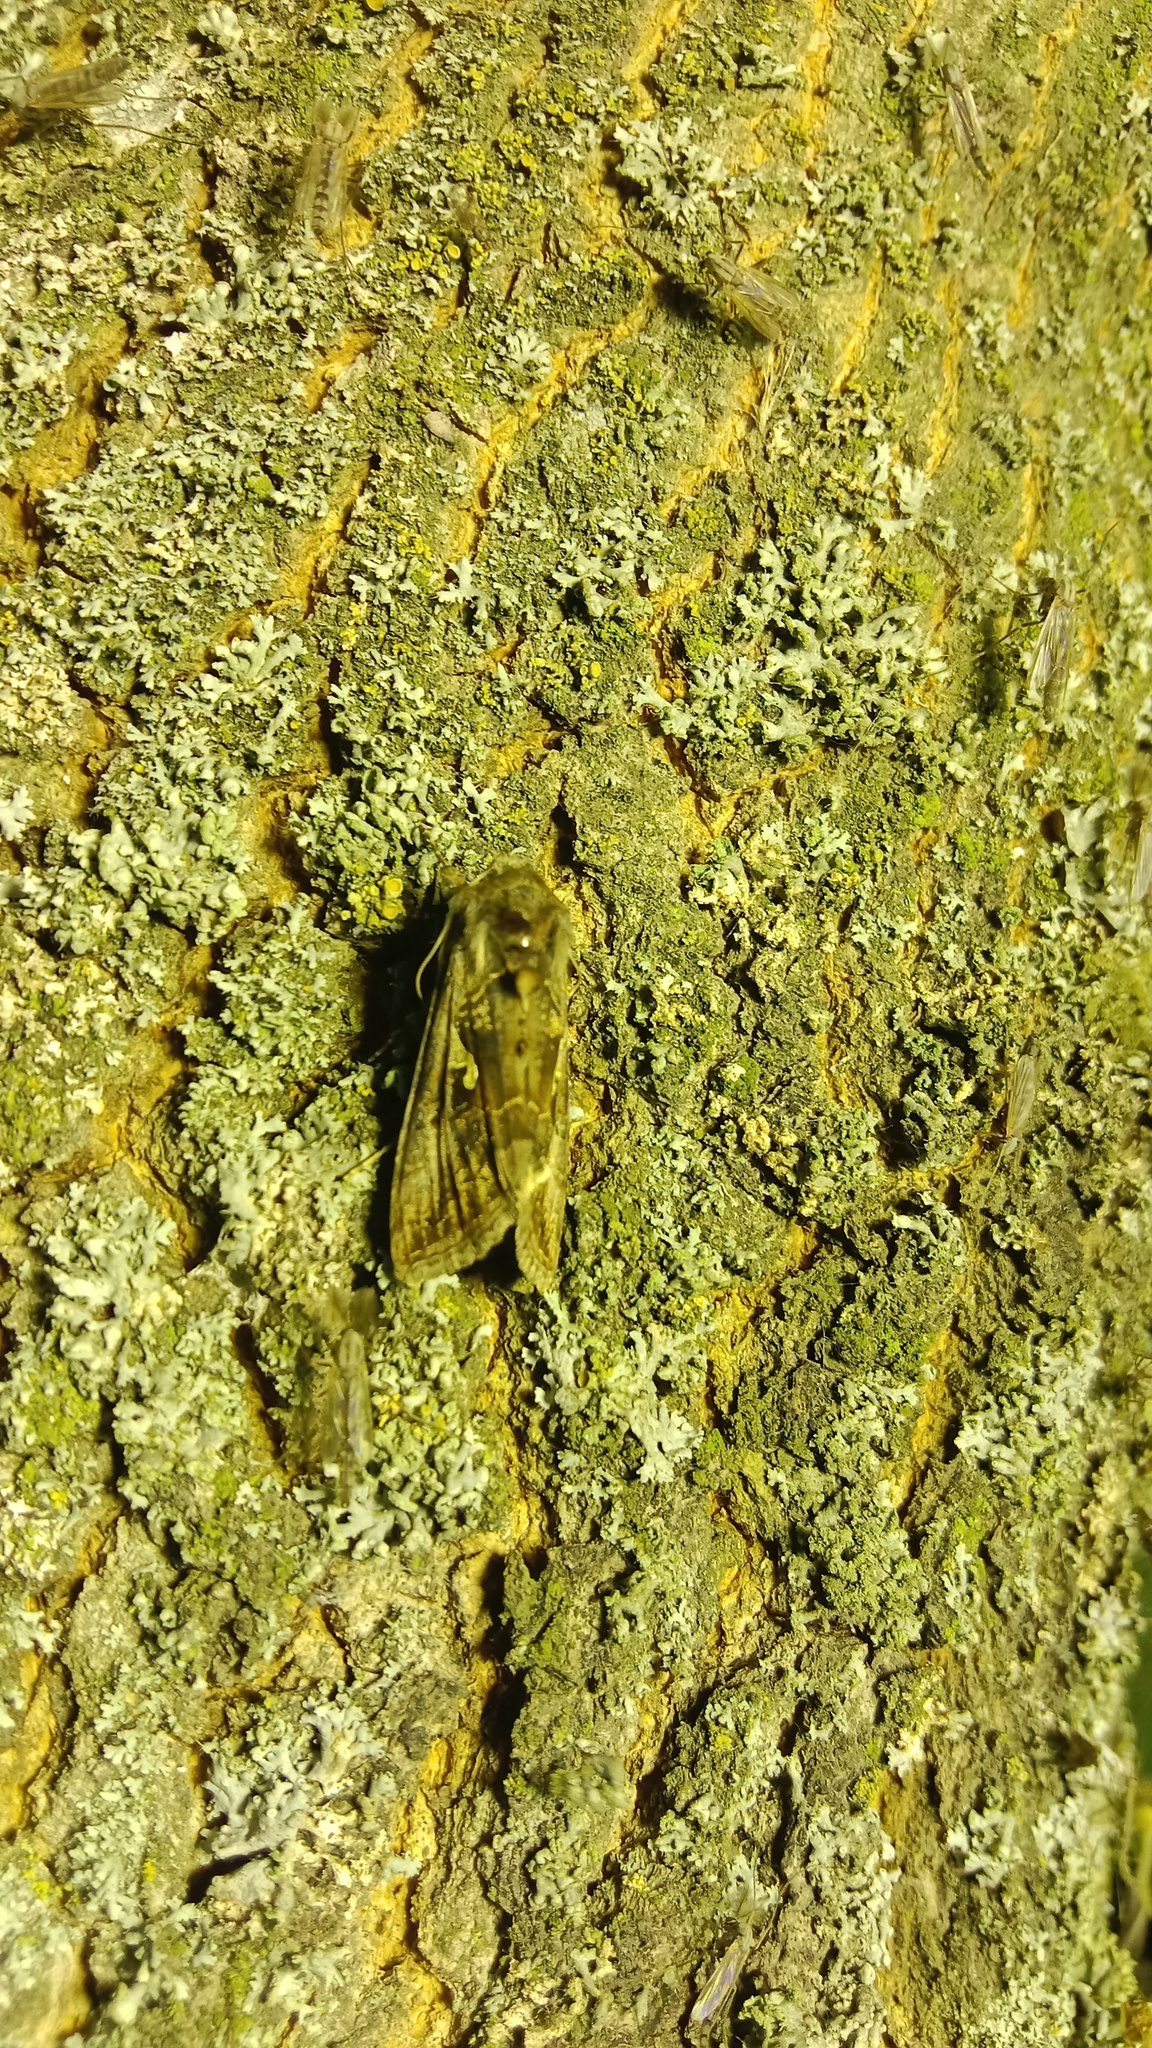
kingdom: Animalia
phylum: Arthropoda
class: Insecta
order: Lepidoptera
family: Noctuidae
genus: Autographa
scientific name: Autographa gamma
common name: Silver y
